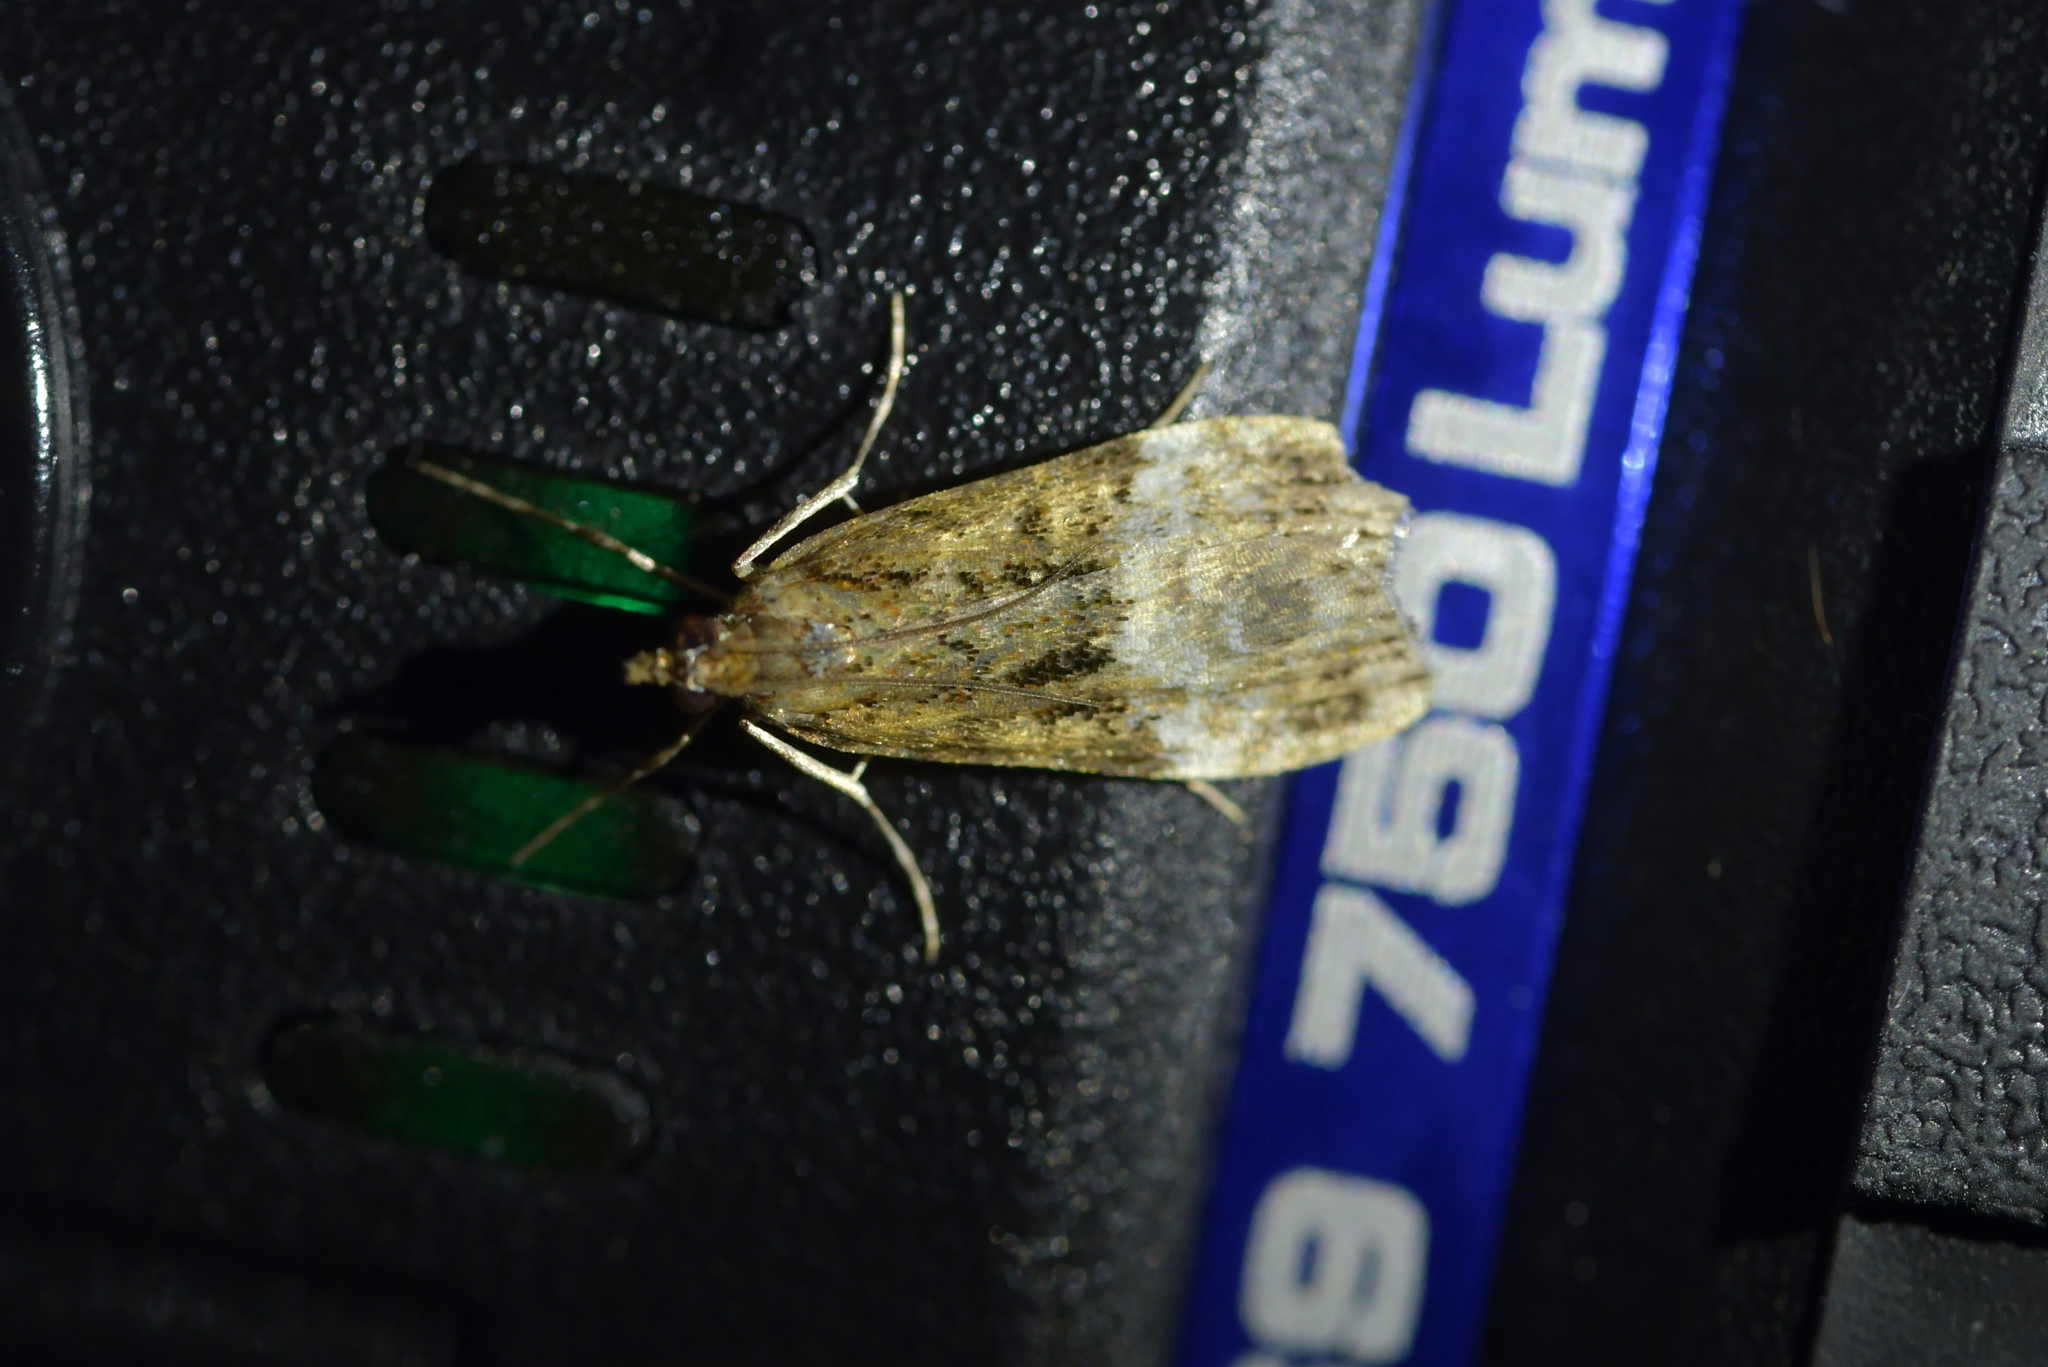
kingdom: Animalia
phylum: Arthropoda
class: Insecta
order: Lepidoptera
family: Crambidae
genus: Scoparia
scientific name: Scoparia minusculalis
